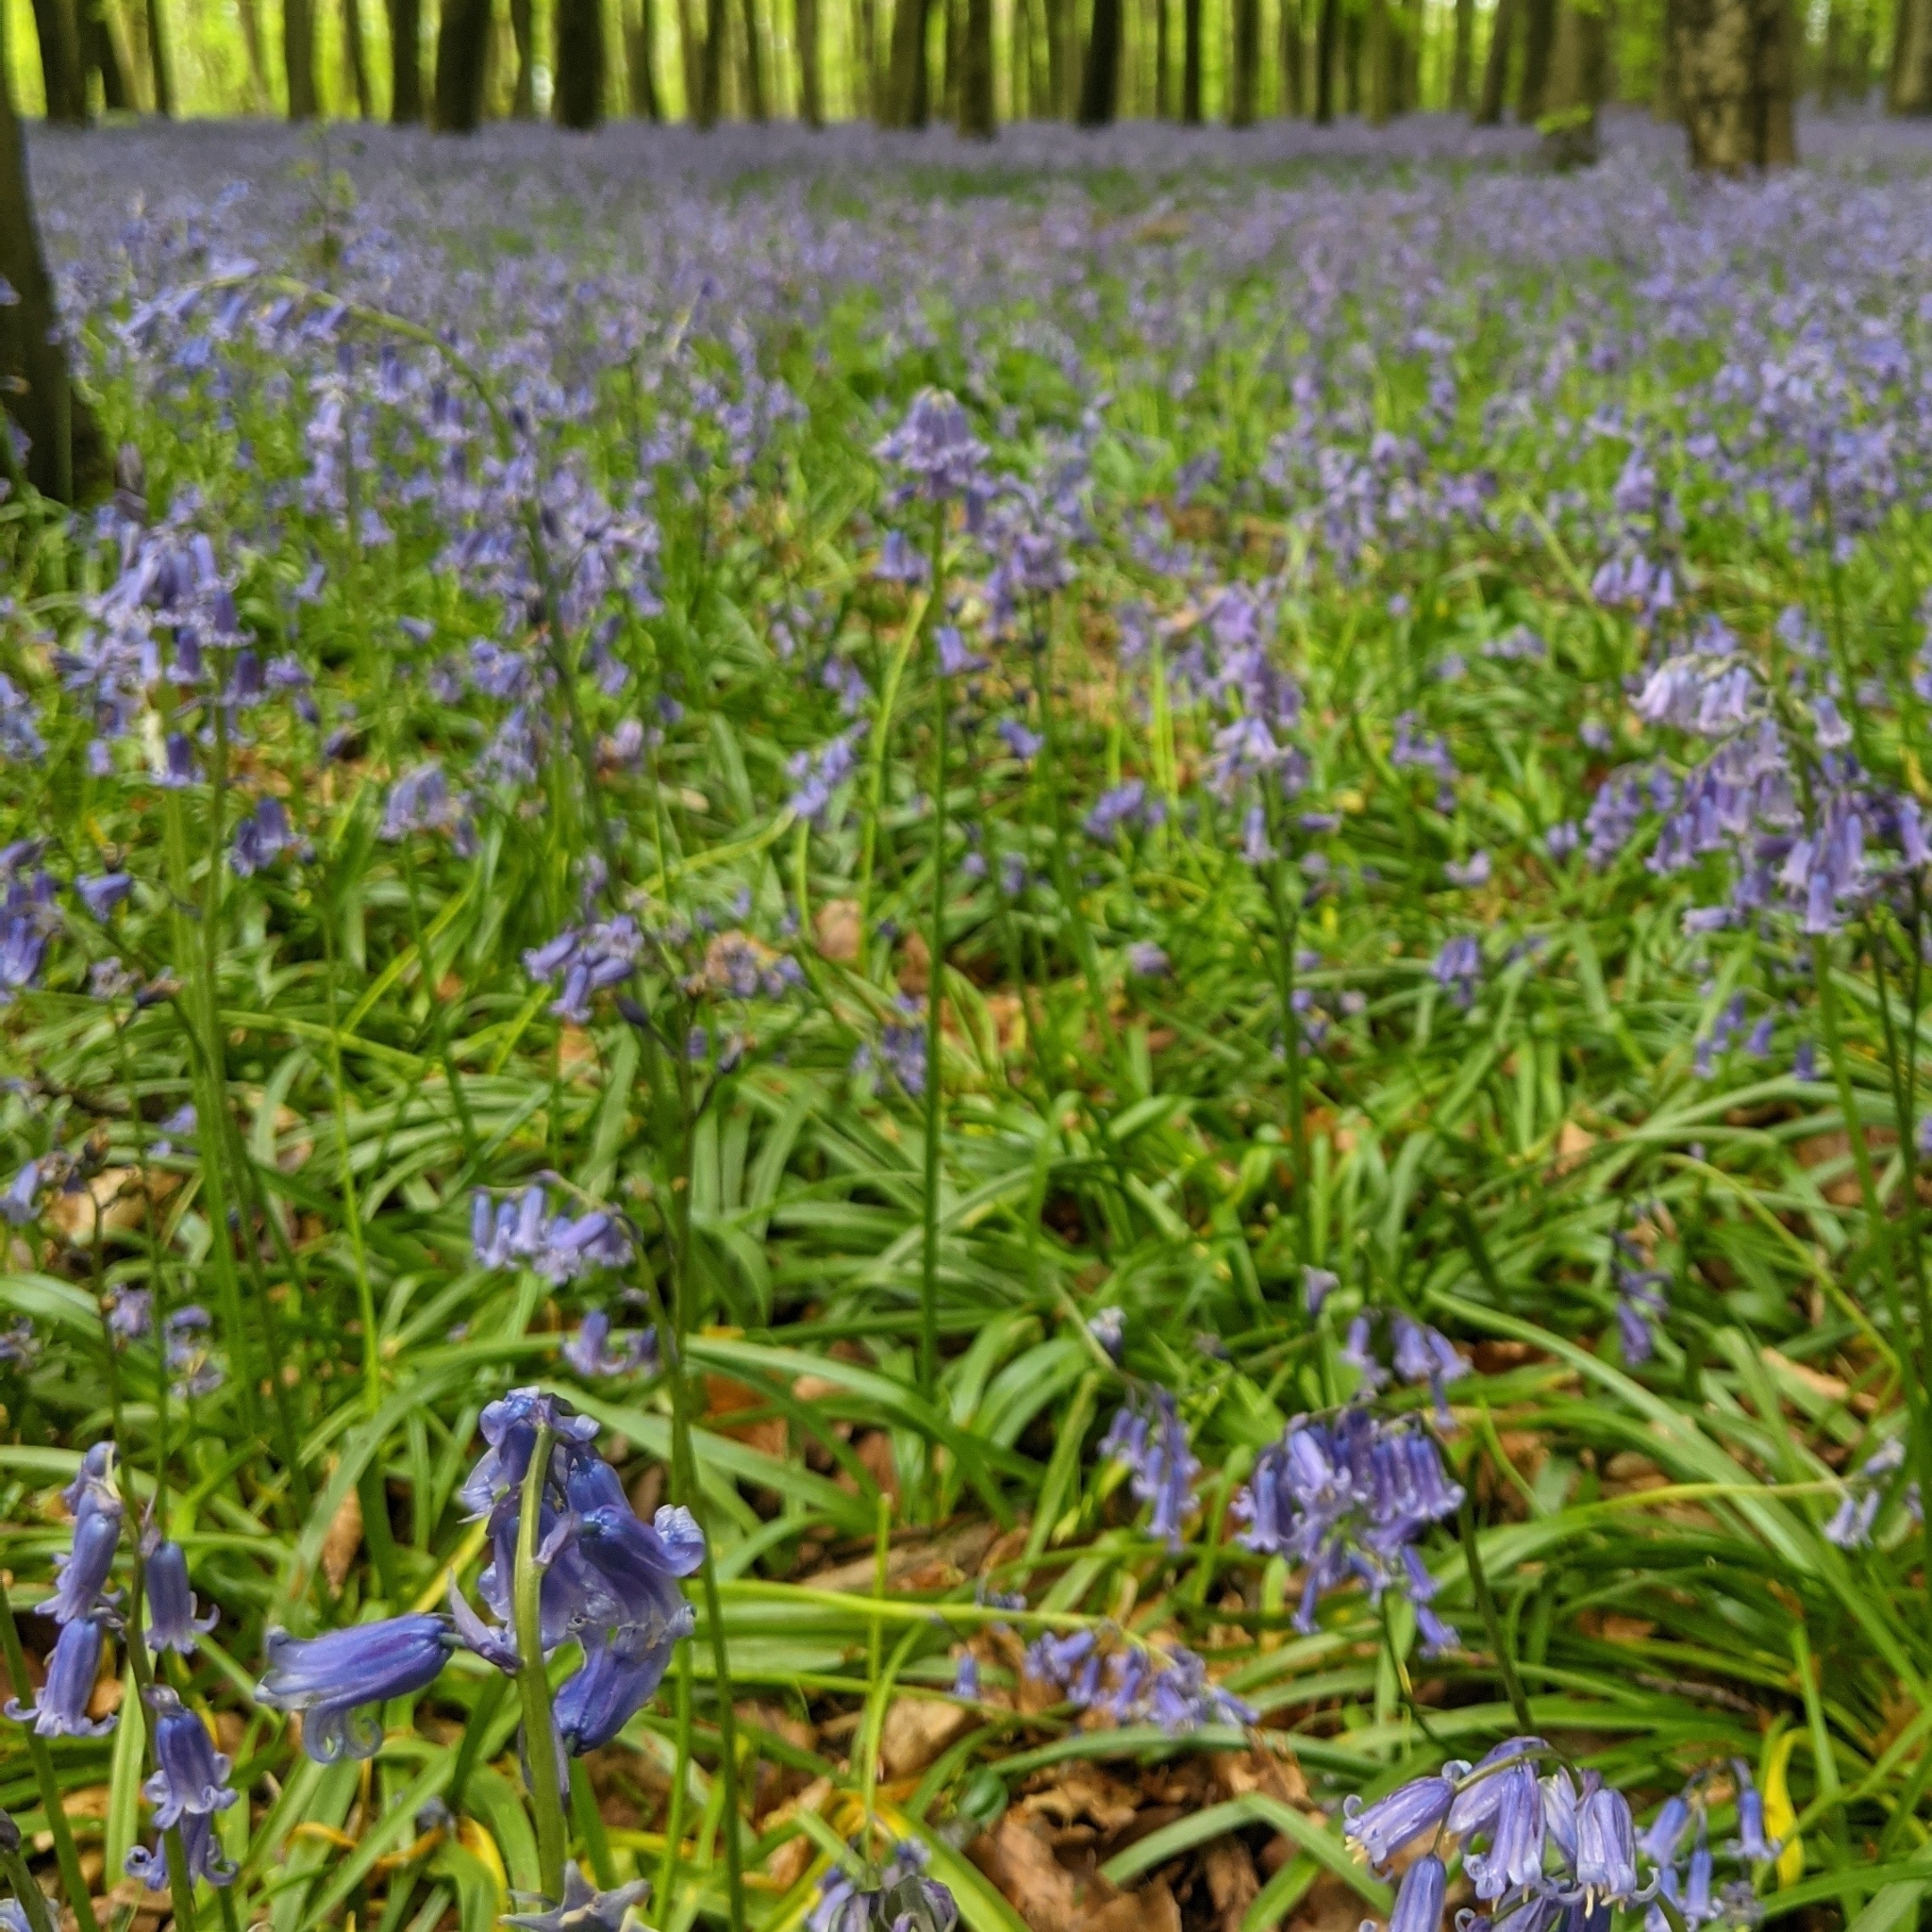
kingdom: Plantae
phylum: Tracheophyta
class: Liliopsida
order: Asparagales
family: Asparagaceae
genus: Hyacinthoides
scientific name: Hyacinthoides non-scripta
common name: Bluebell
